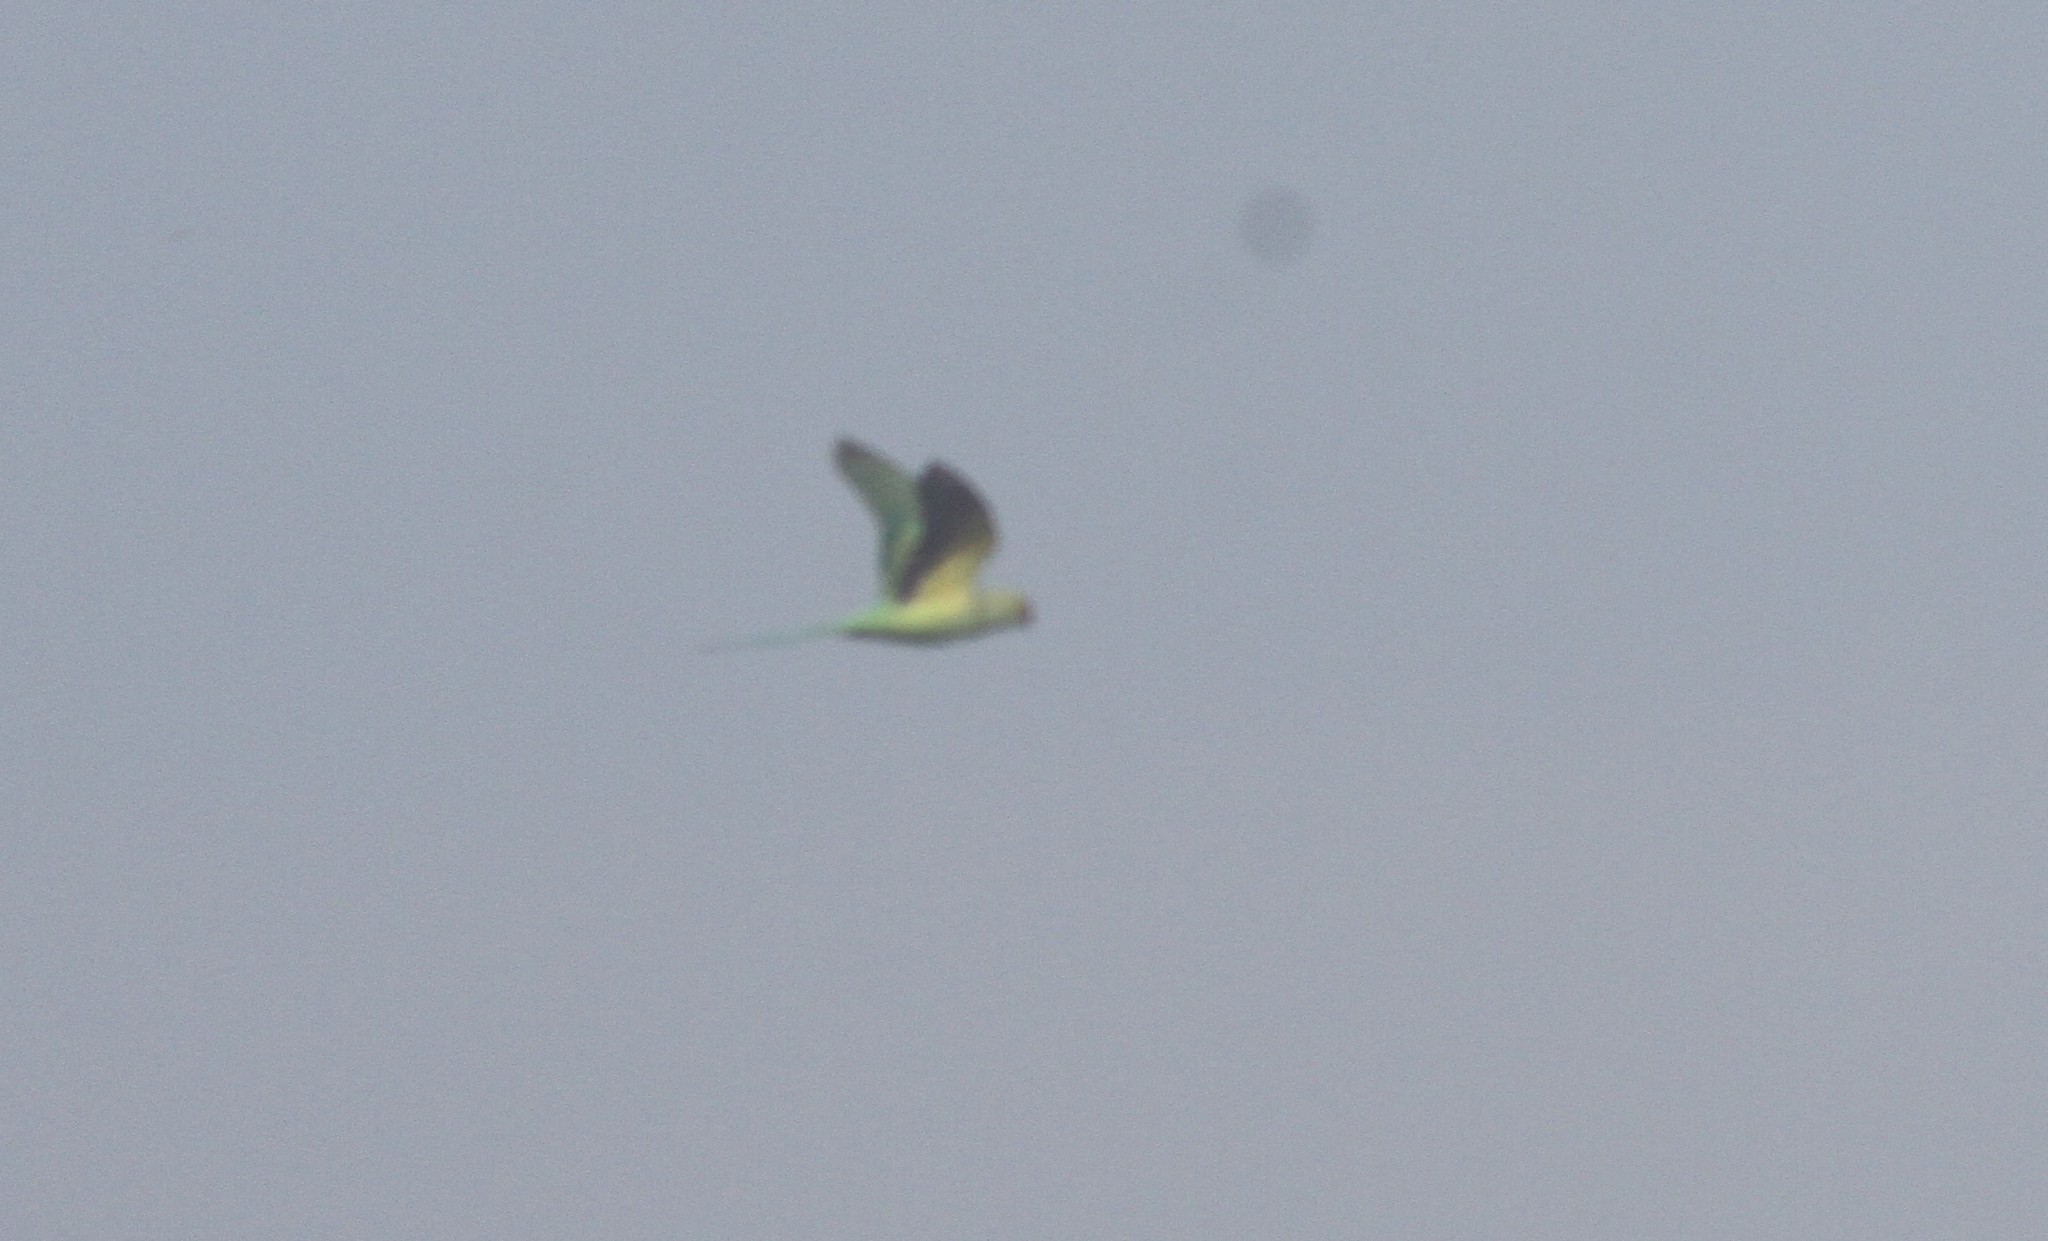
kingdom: Animalia
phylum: Chordata
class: Aves
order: Psittaciformes
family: Psittacidae
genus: Psittacula
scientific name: Psittacula krameri
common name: Rose-ringed parakeet
